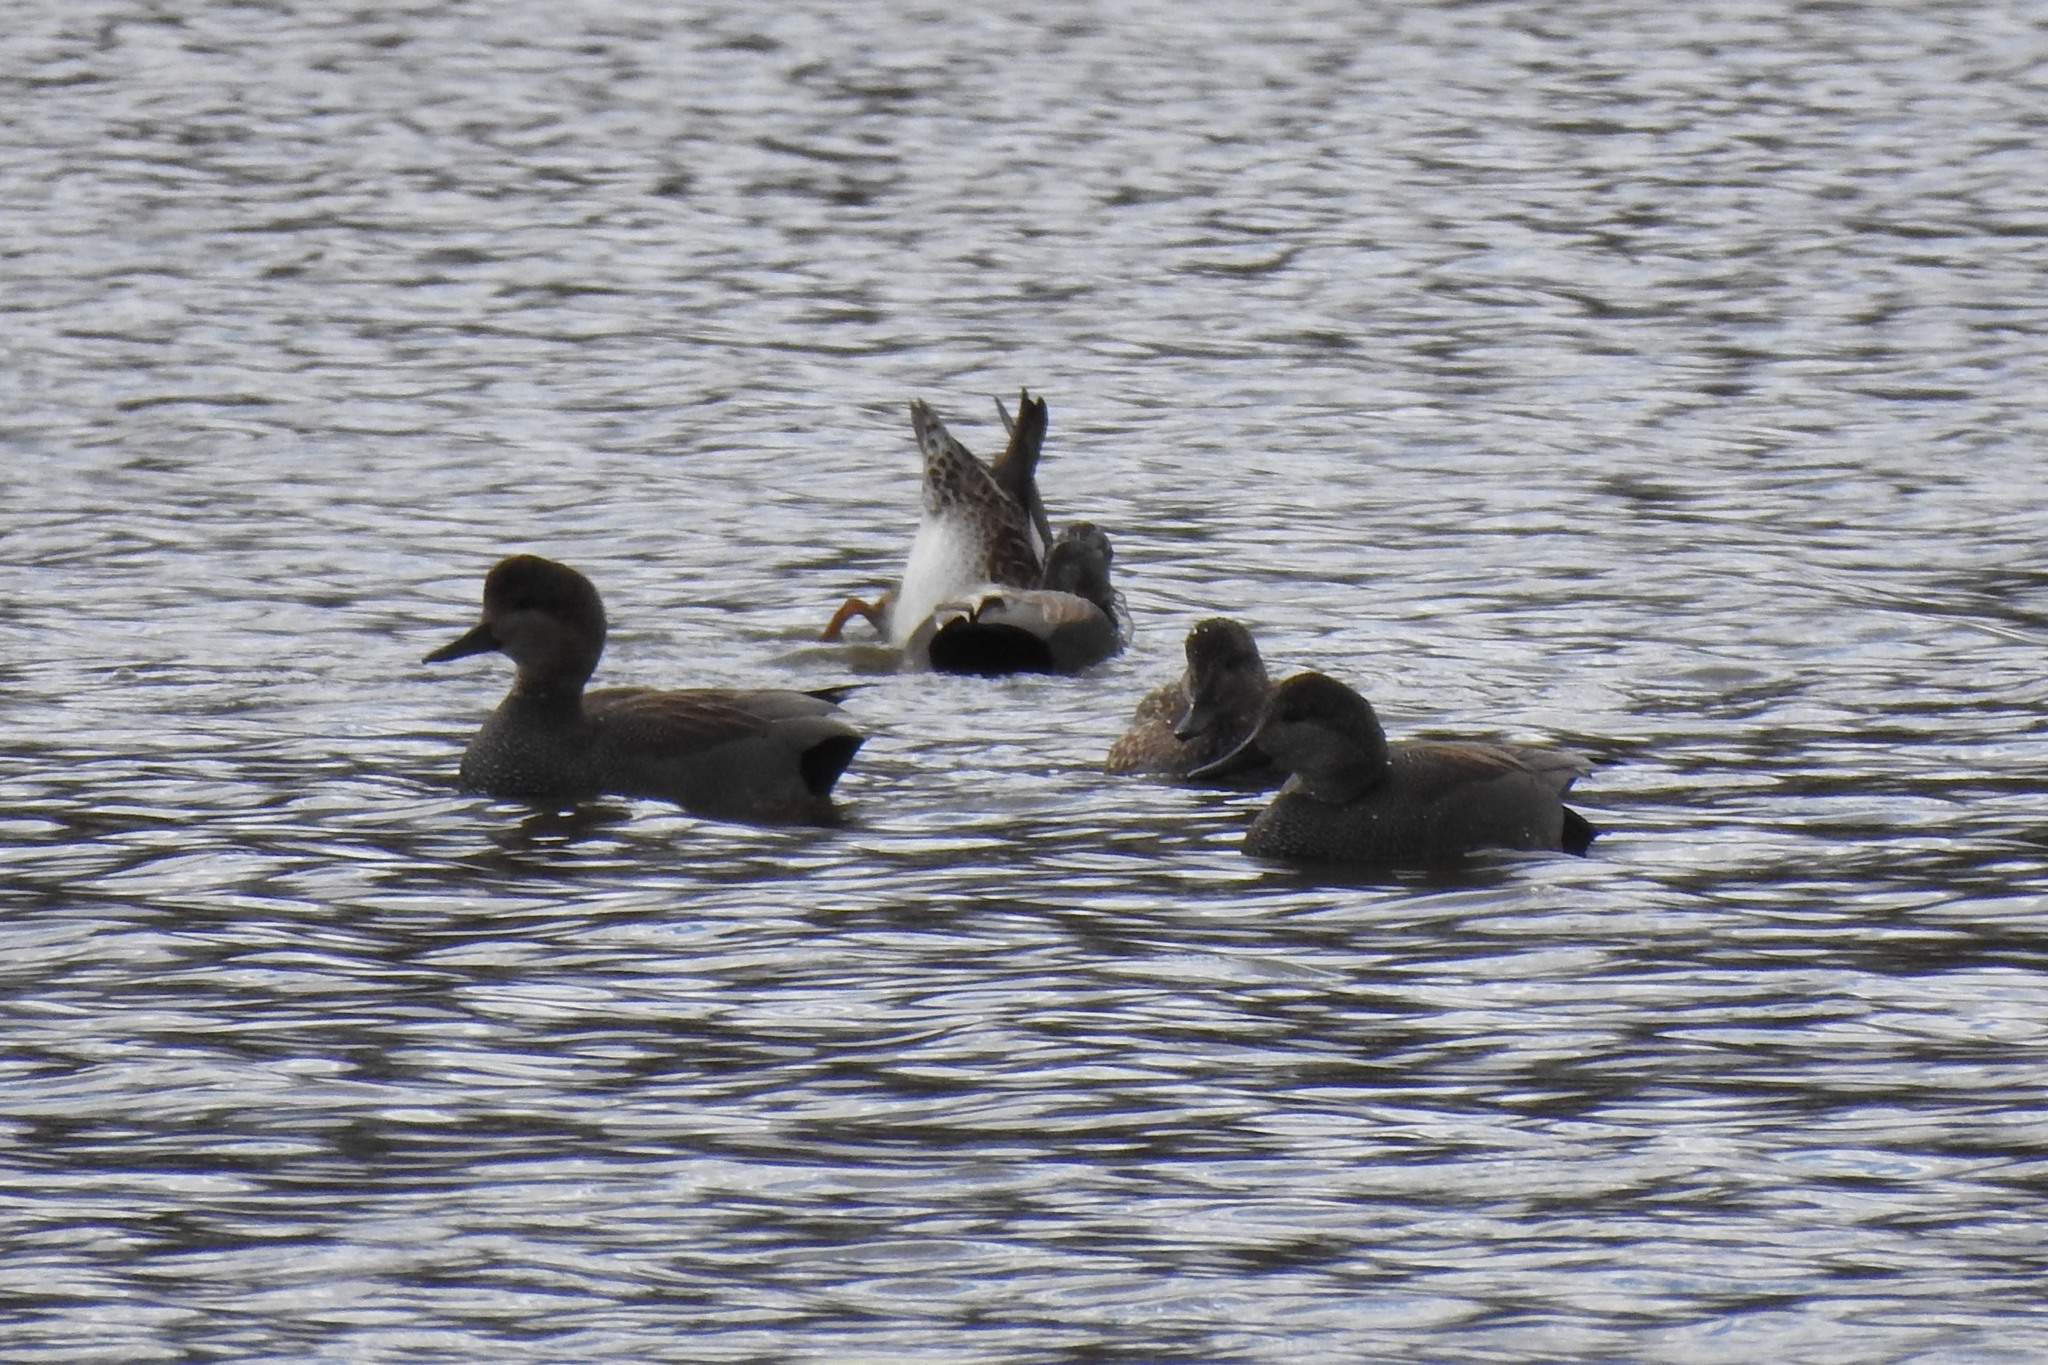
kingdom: Animalia
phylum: Chordata
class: Aves
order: Anseriformes
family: Anatidae
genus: Mareca
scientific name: Mareca strepera
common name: Gadwall
